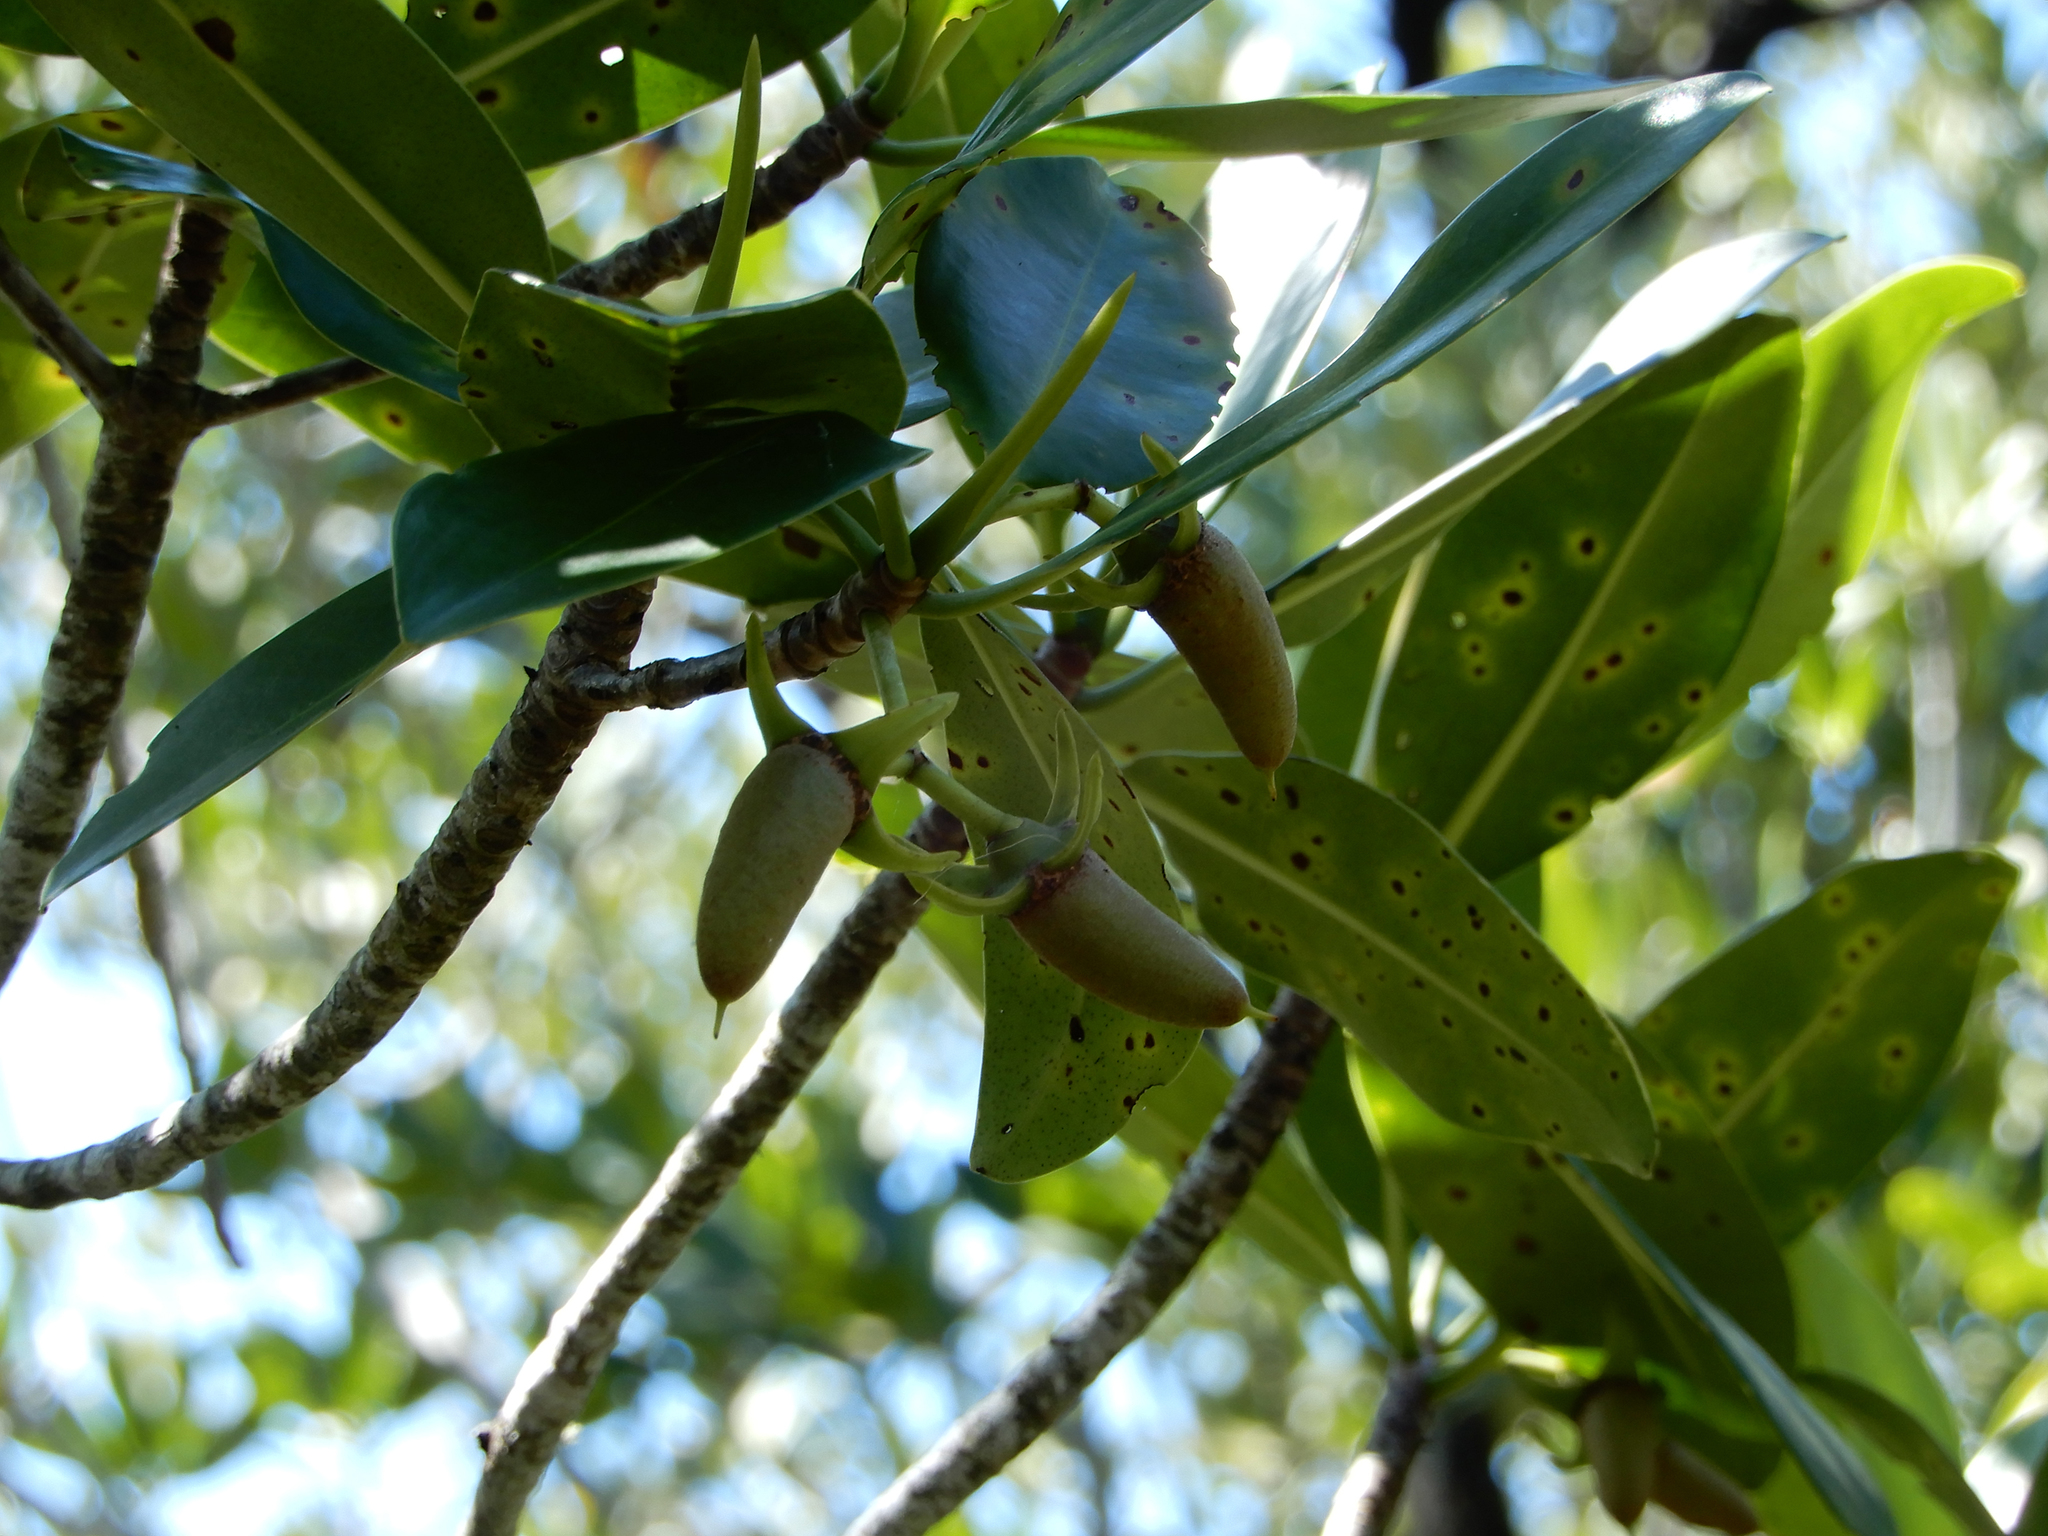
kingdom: Plantae
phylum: Tracheophyta
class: Magnoliopsida
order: Malpighiales
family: Rhizophoraceae
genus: Rhizophora
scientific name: Rhizophora mangle
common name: Red mangrove
